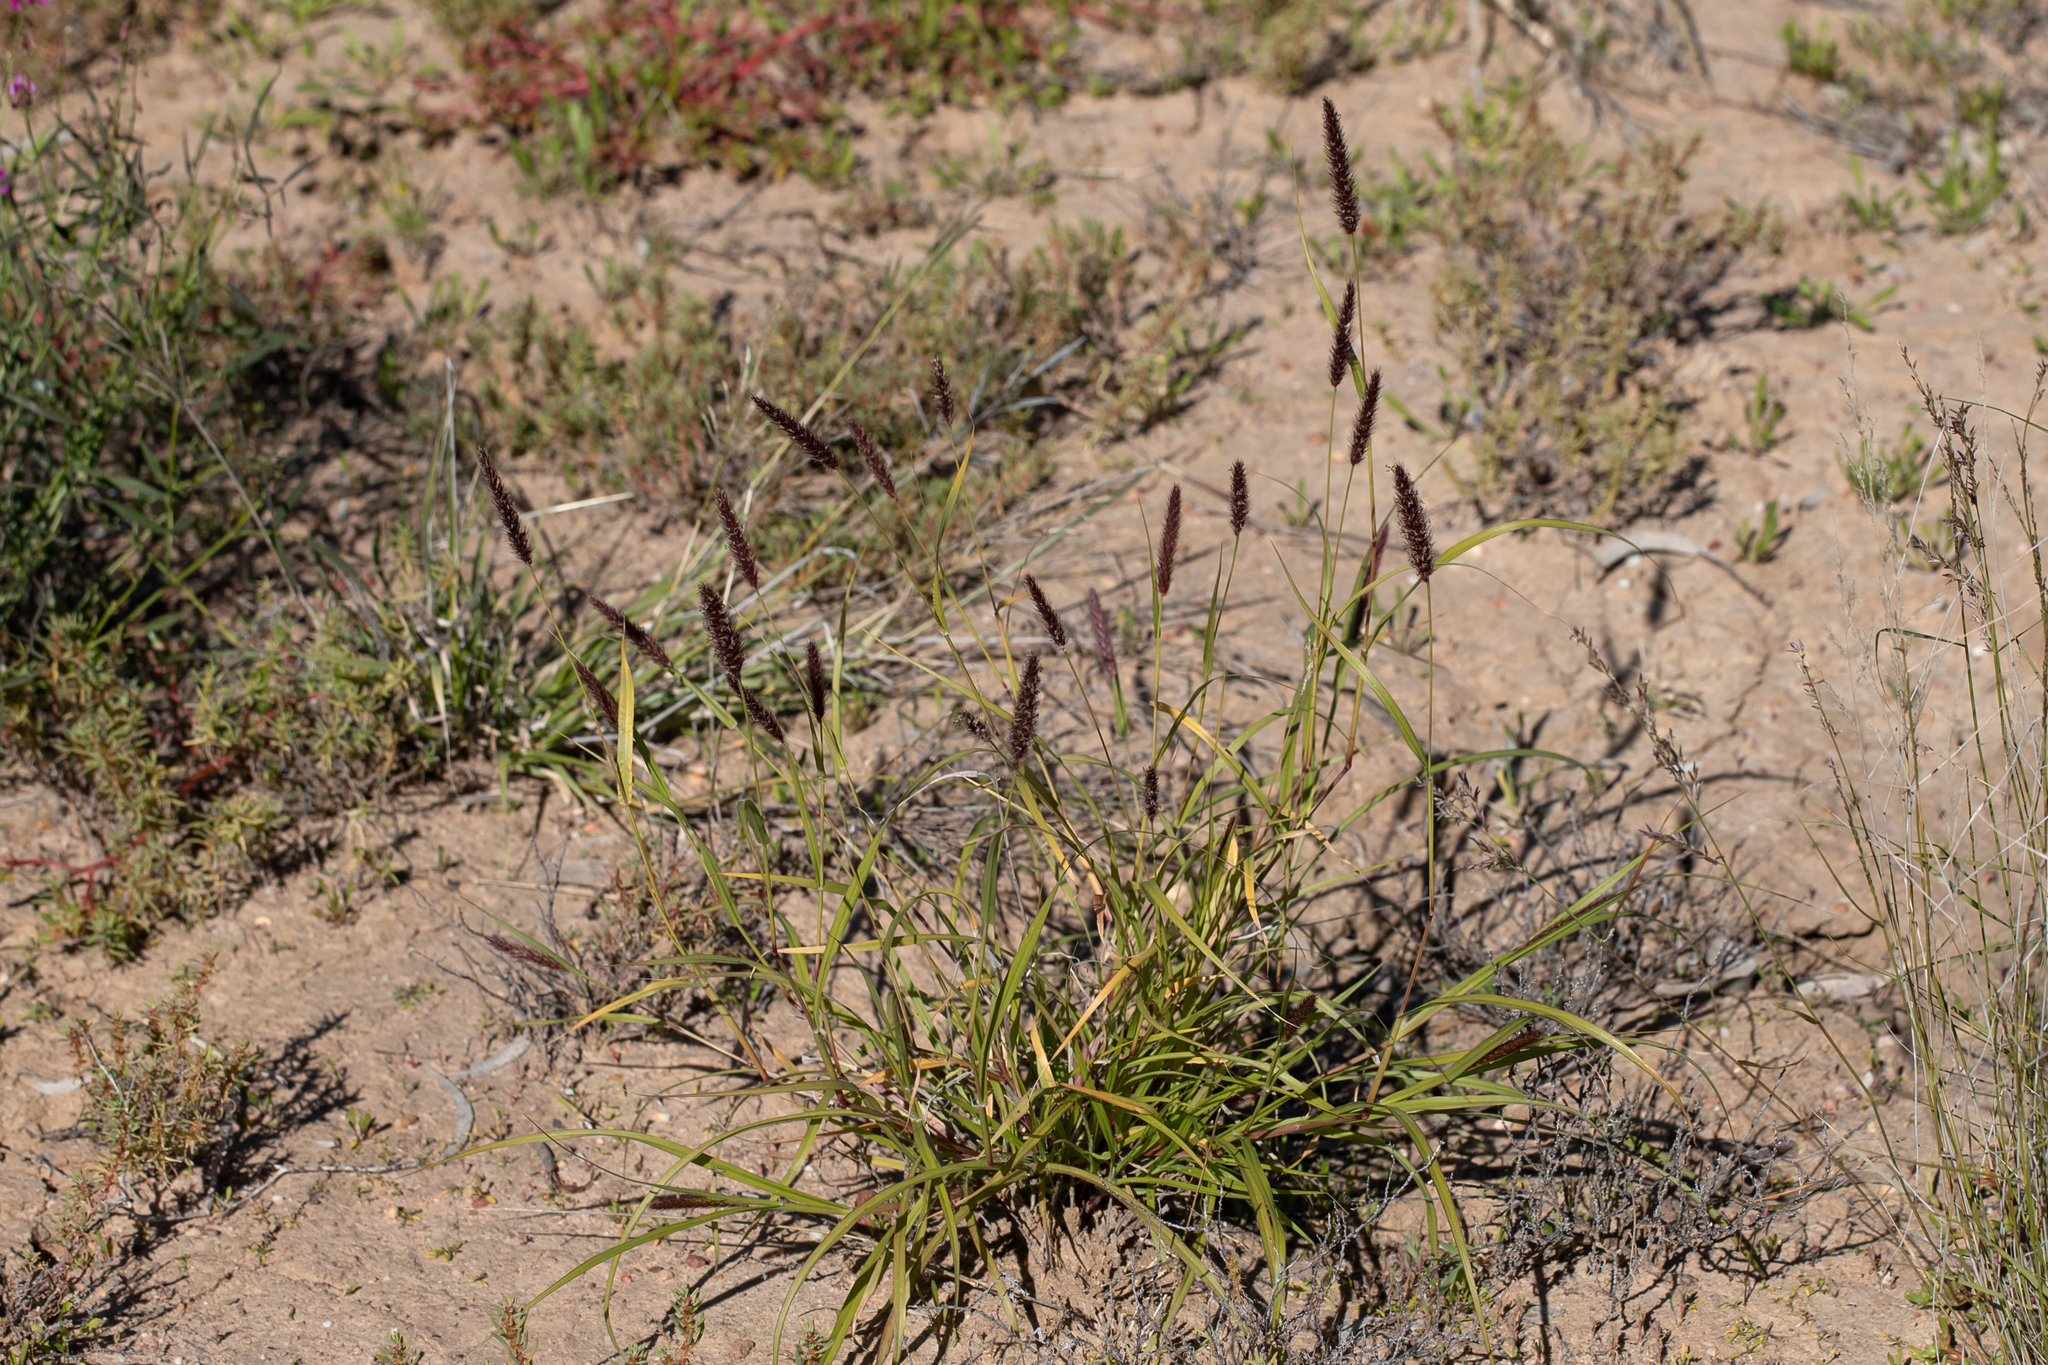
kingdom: Plantae
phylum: Tracheophyta
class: Liliopsida
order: Poales
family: Poaceae
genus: Cenchrus
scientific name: Cenchrus ciliaris
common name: Buffelgrass
